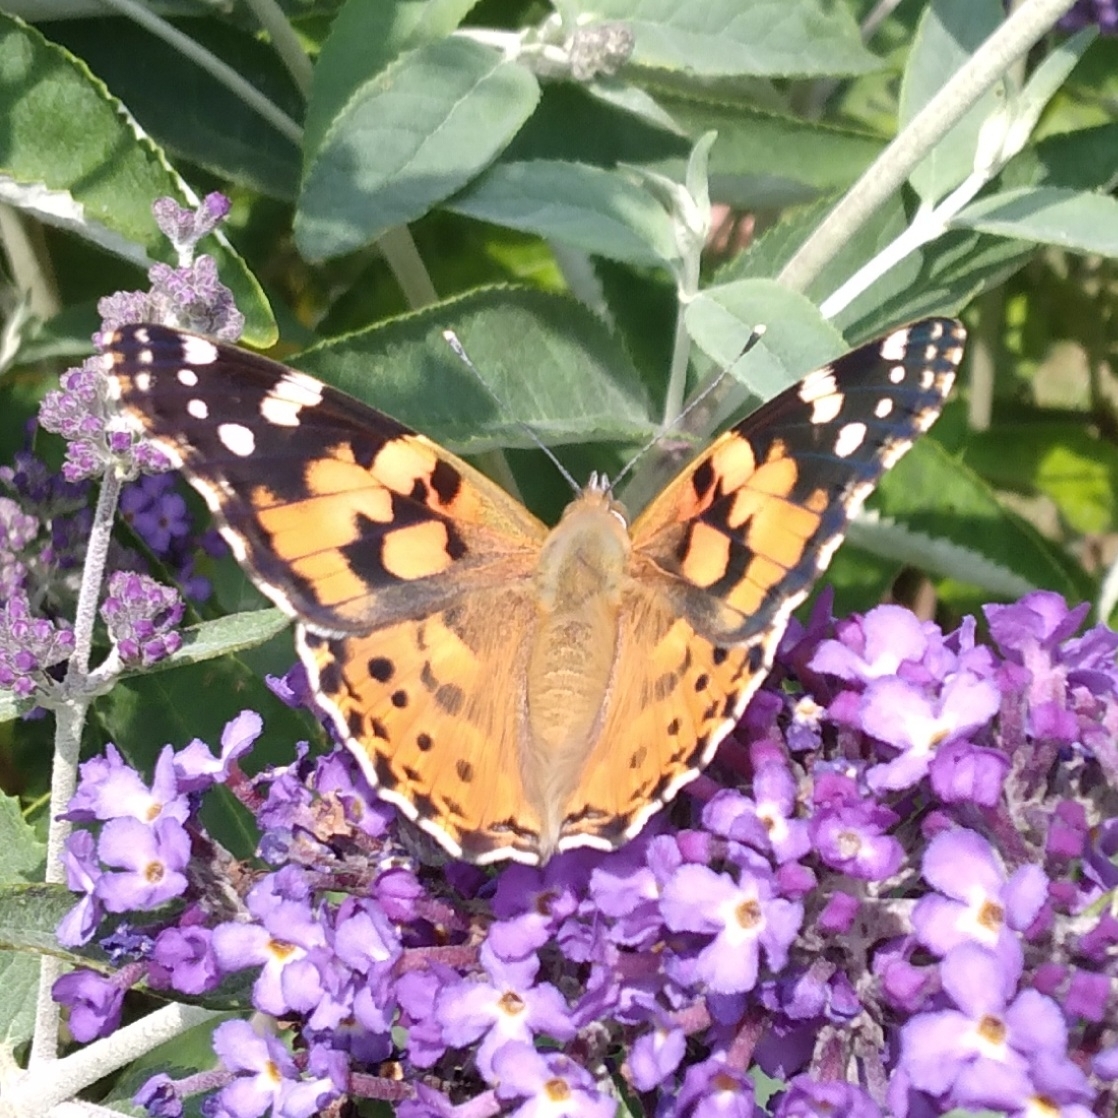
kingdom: Animalia
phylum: Arthropoda
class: Insecta
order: Lepidoptera
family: Nymphalidae
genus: Vanessa
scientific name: Vanessa cardui
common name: Painted lady
